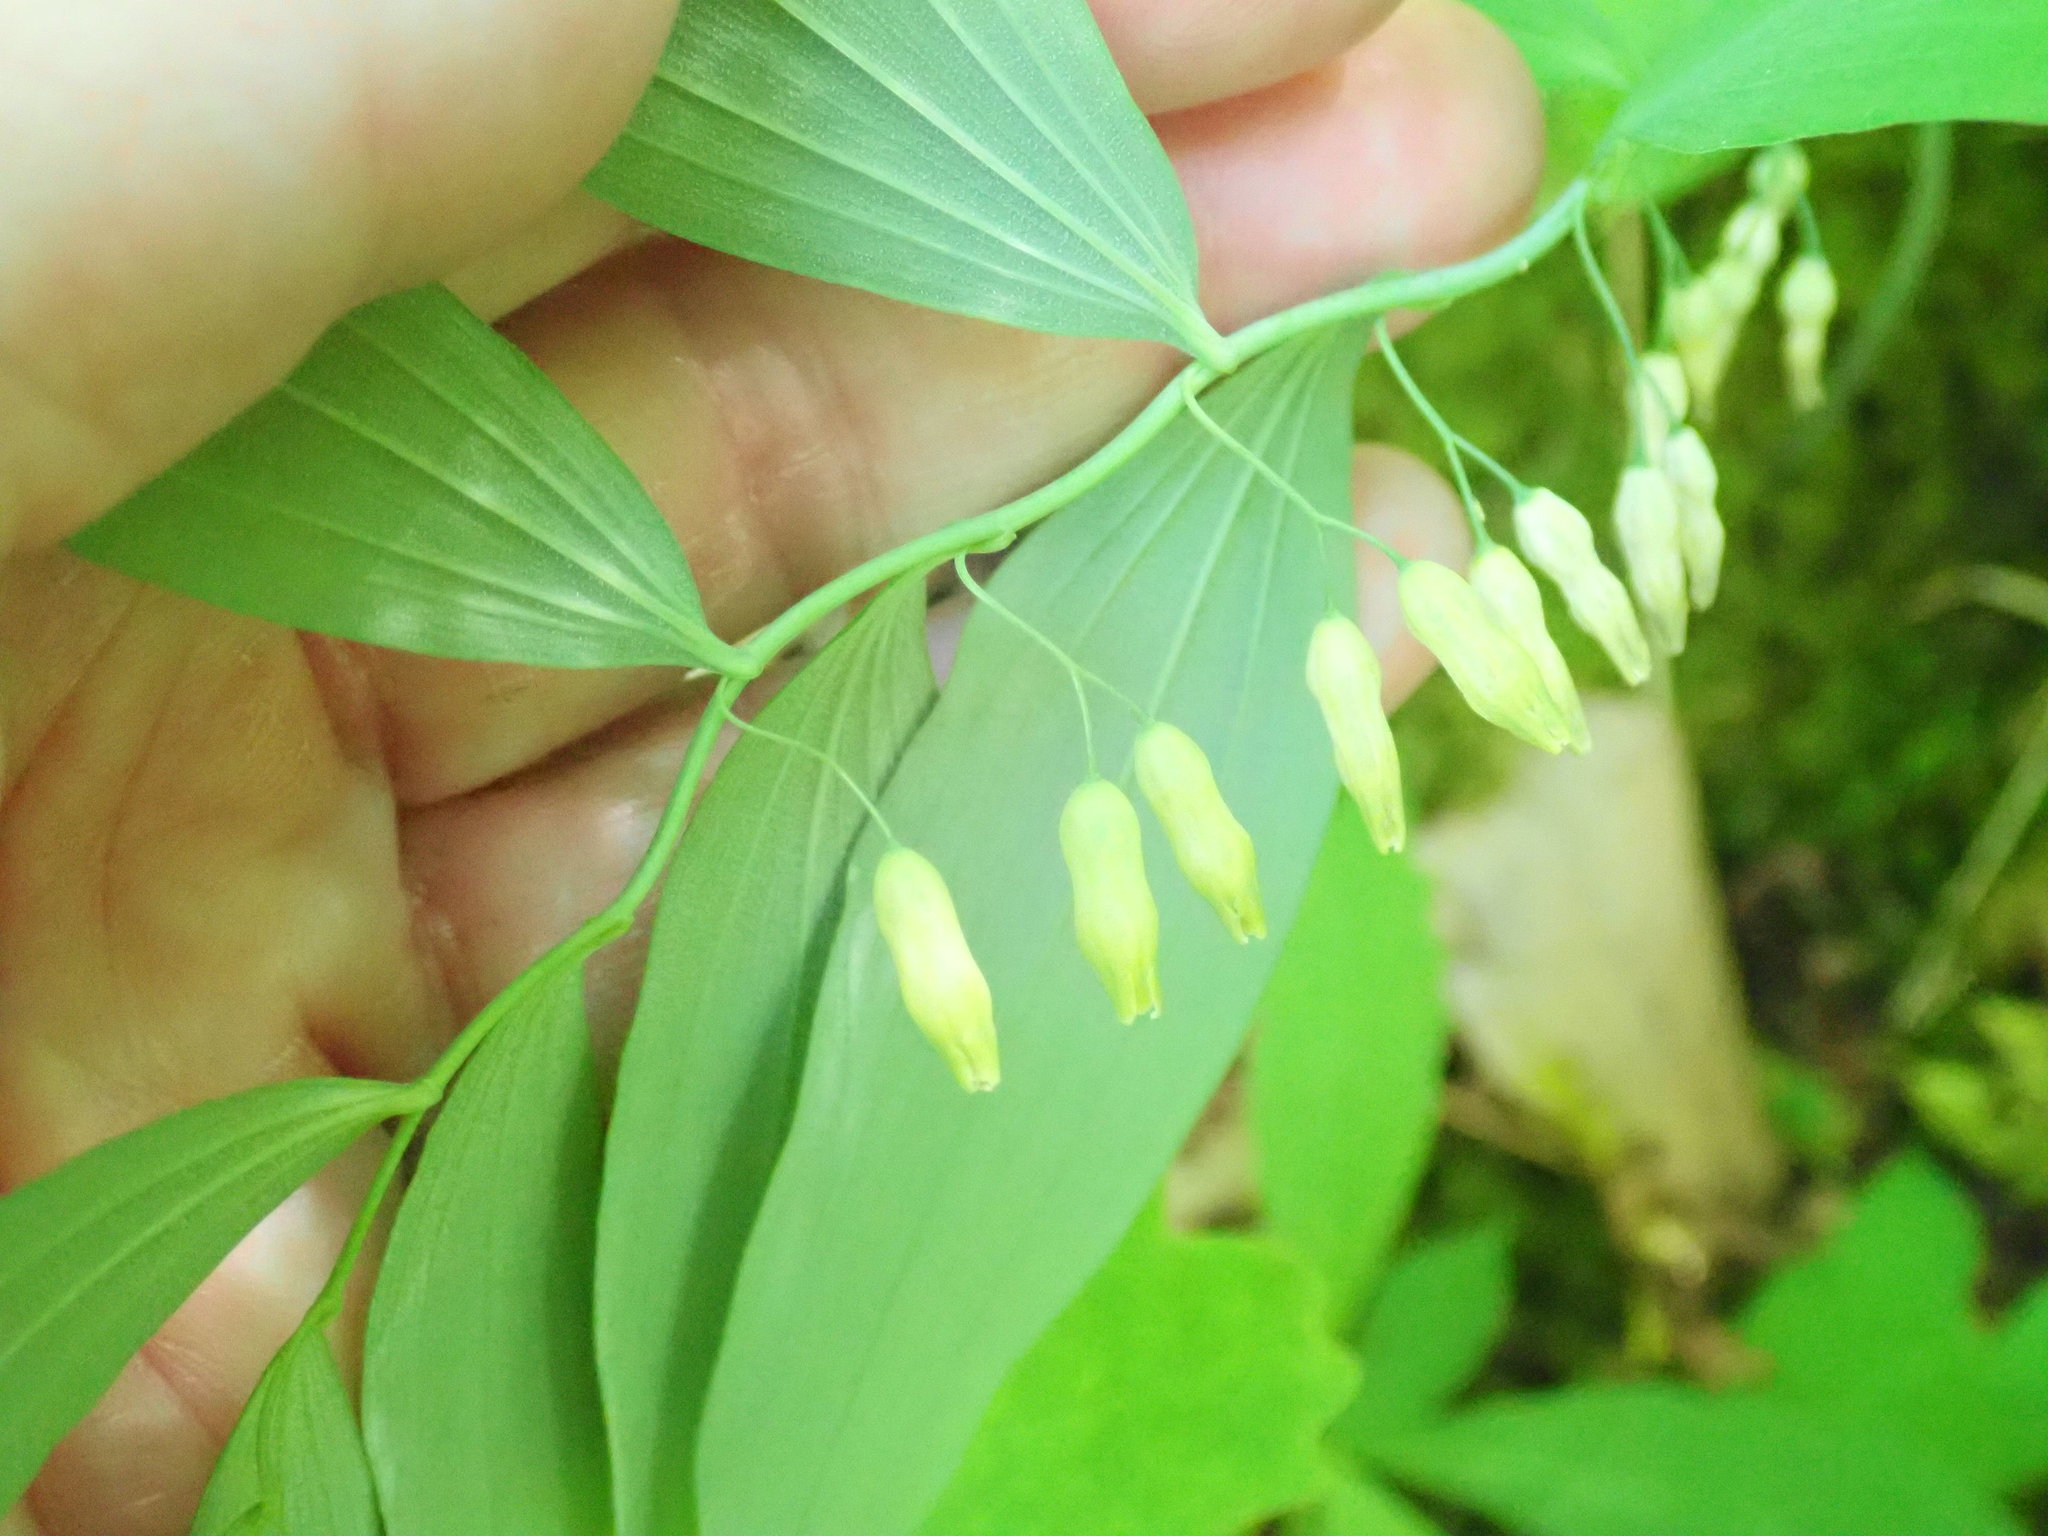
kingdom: Plantae
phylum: Tracheophyta
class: Liliopsida
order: Asparagales
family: Asparagaceae
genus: Polygonatum
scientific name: Polygonatum pubescens
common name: Downy solomon's seal
